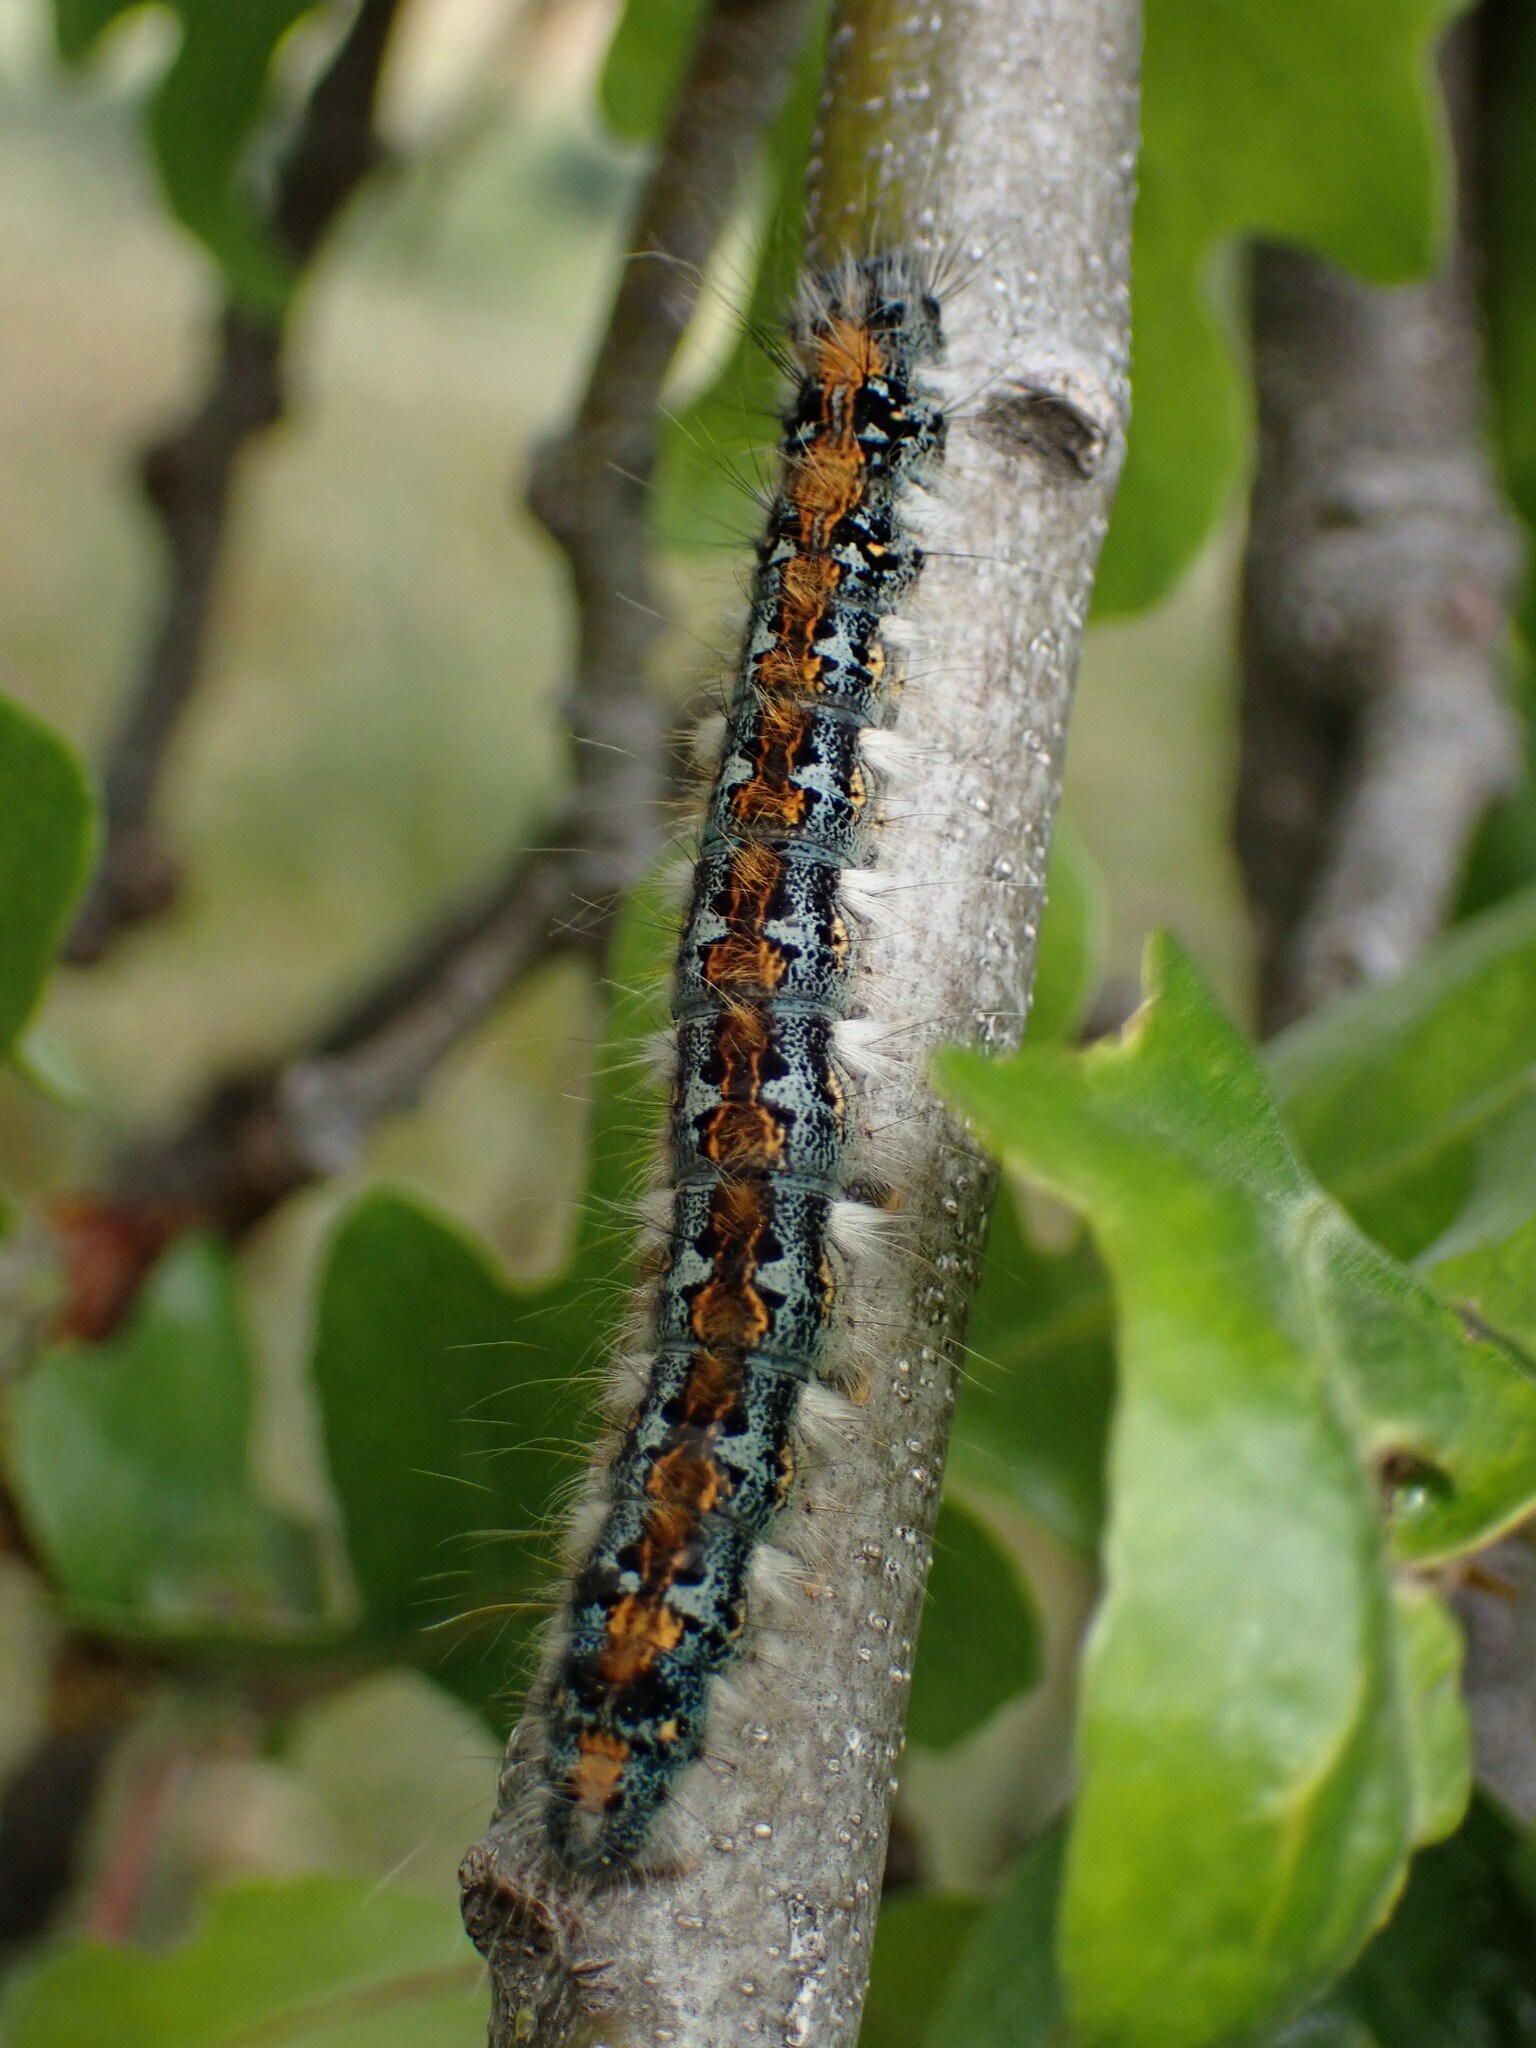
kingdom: Animalia
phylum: Arthropoda
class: Insecta
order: Lepidoptera
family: Lasiocampidae
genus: Malacosoma
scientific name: Malacosoma constricta
